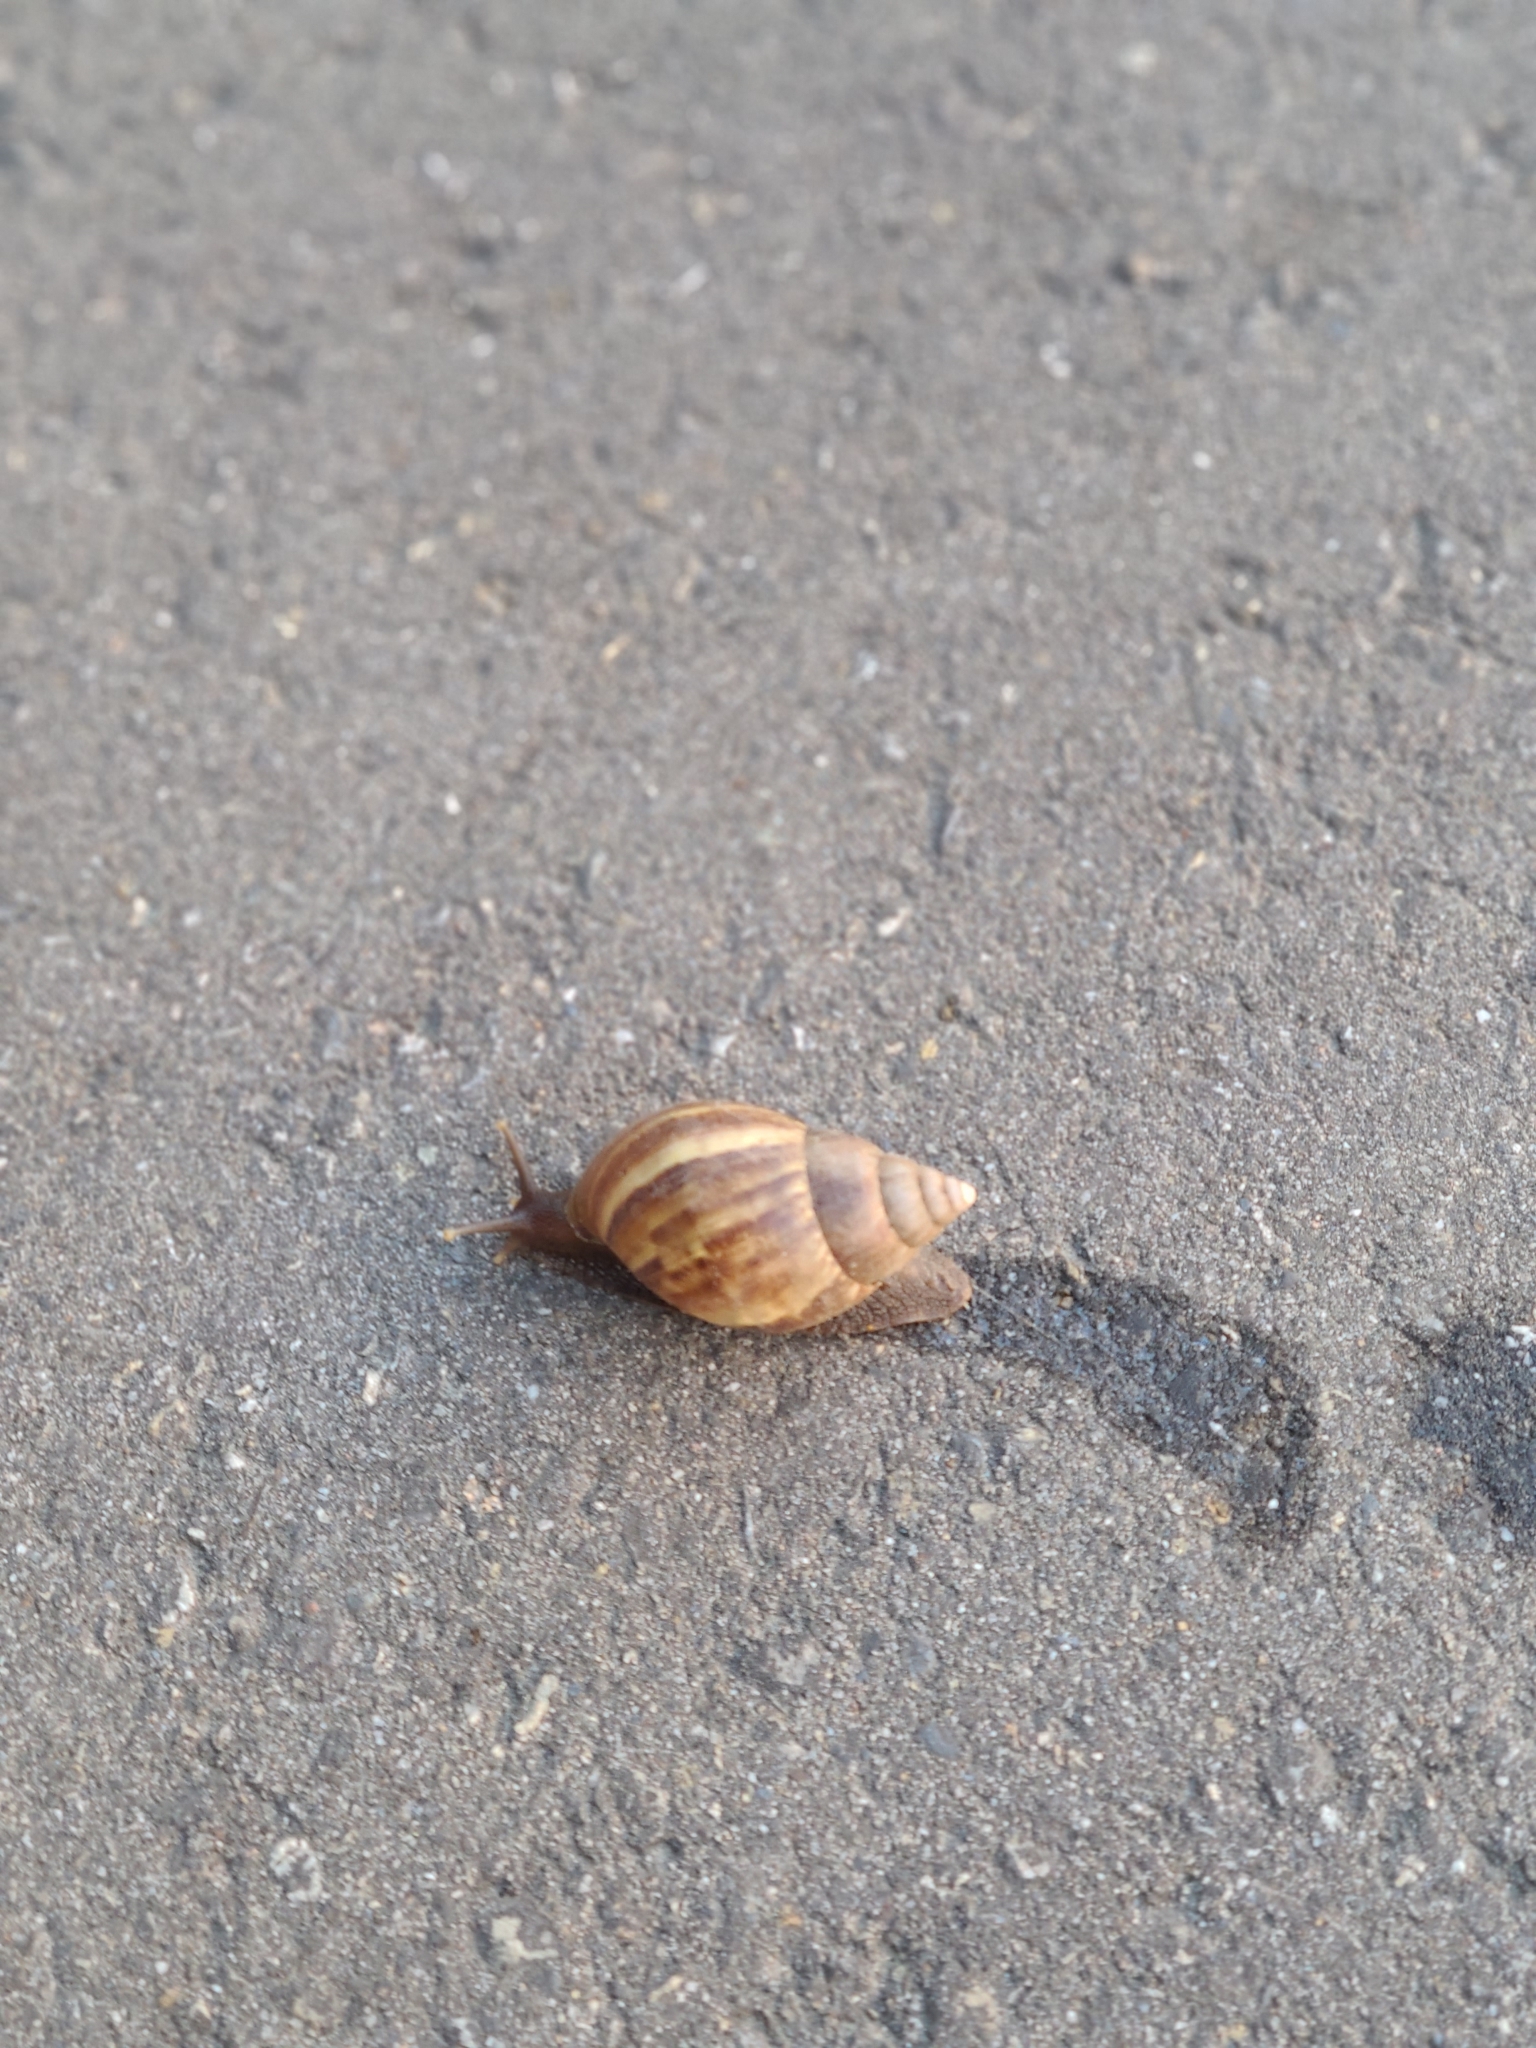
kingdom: Animalia
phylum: Mollusca
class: Gastropoda
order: Stylommatophora
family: Achatinidae
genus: Lissachatina
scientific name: Lissachatina fulica
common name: Giant african snail
